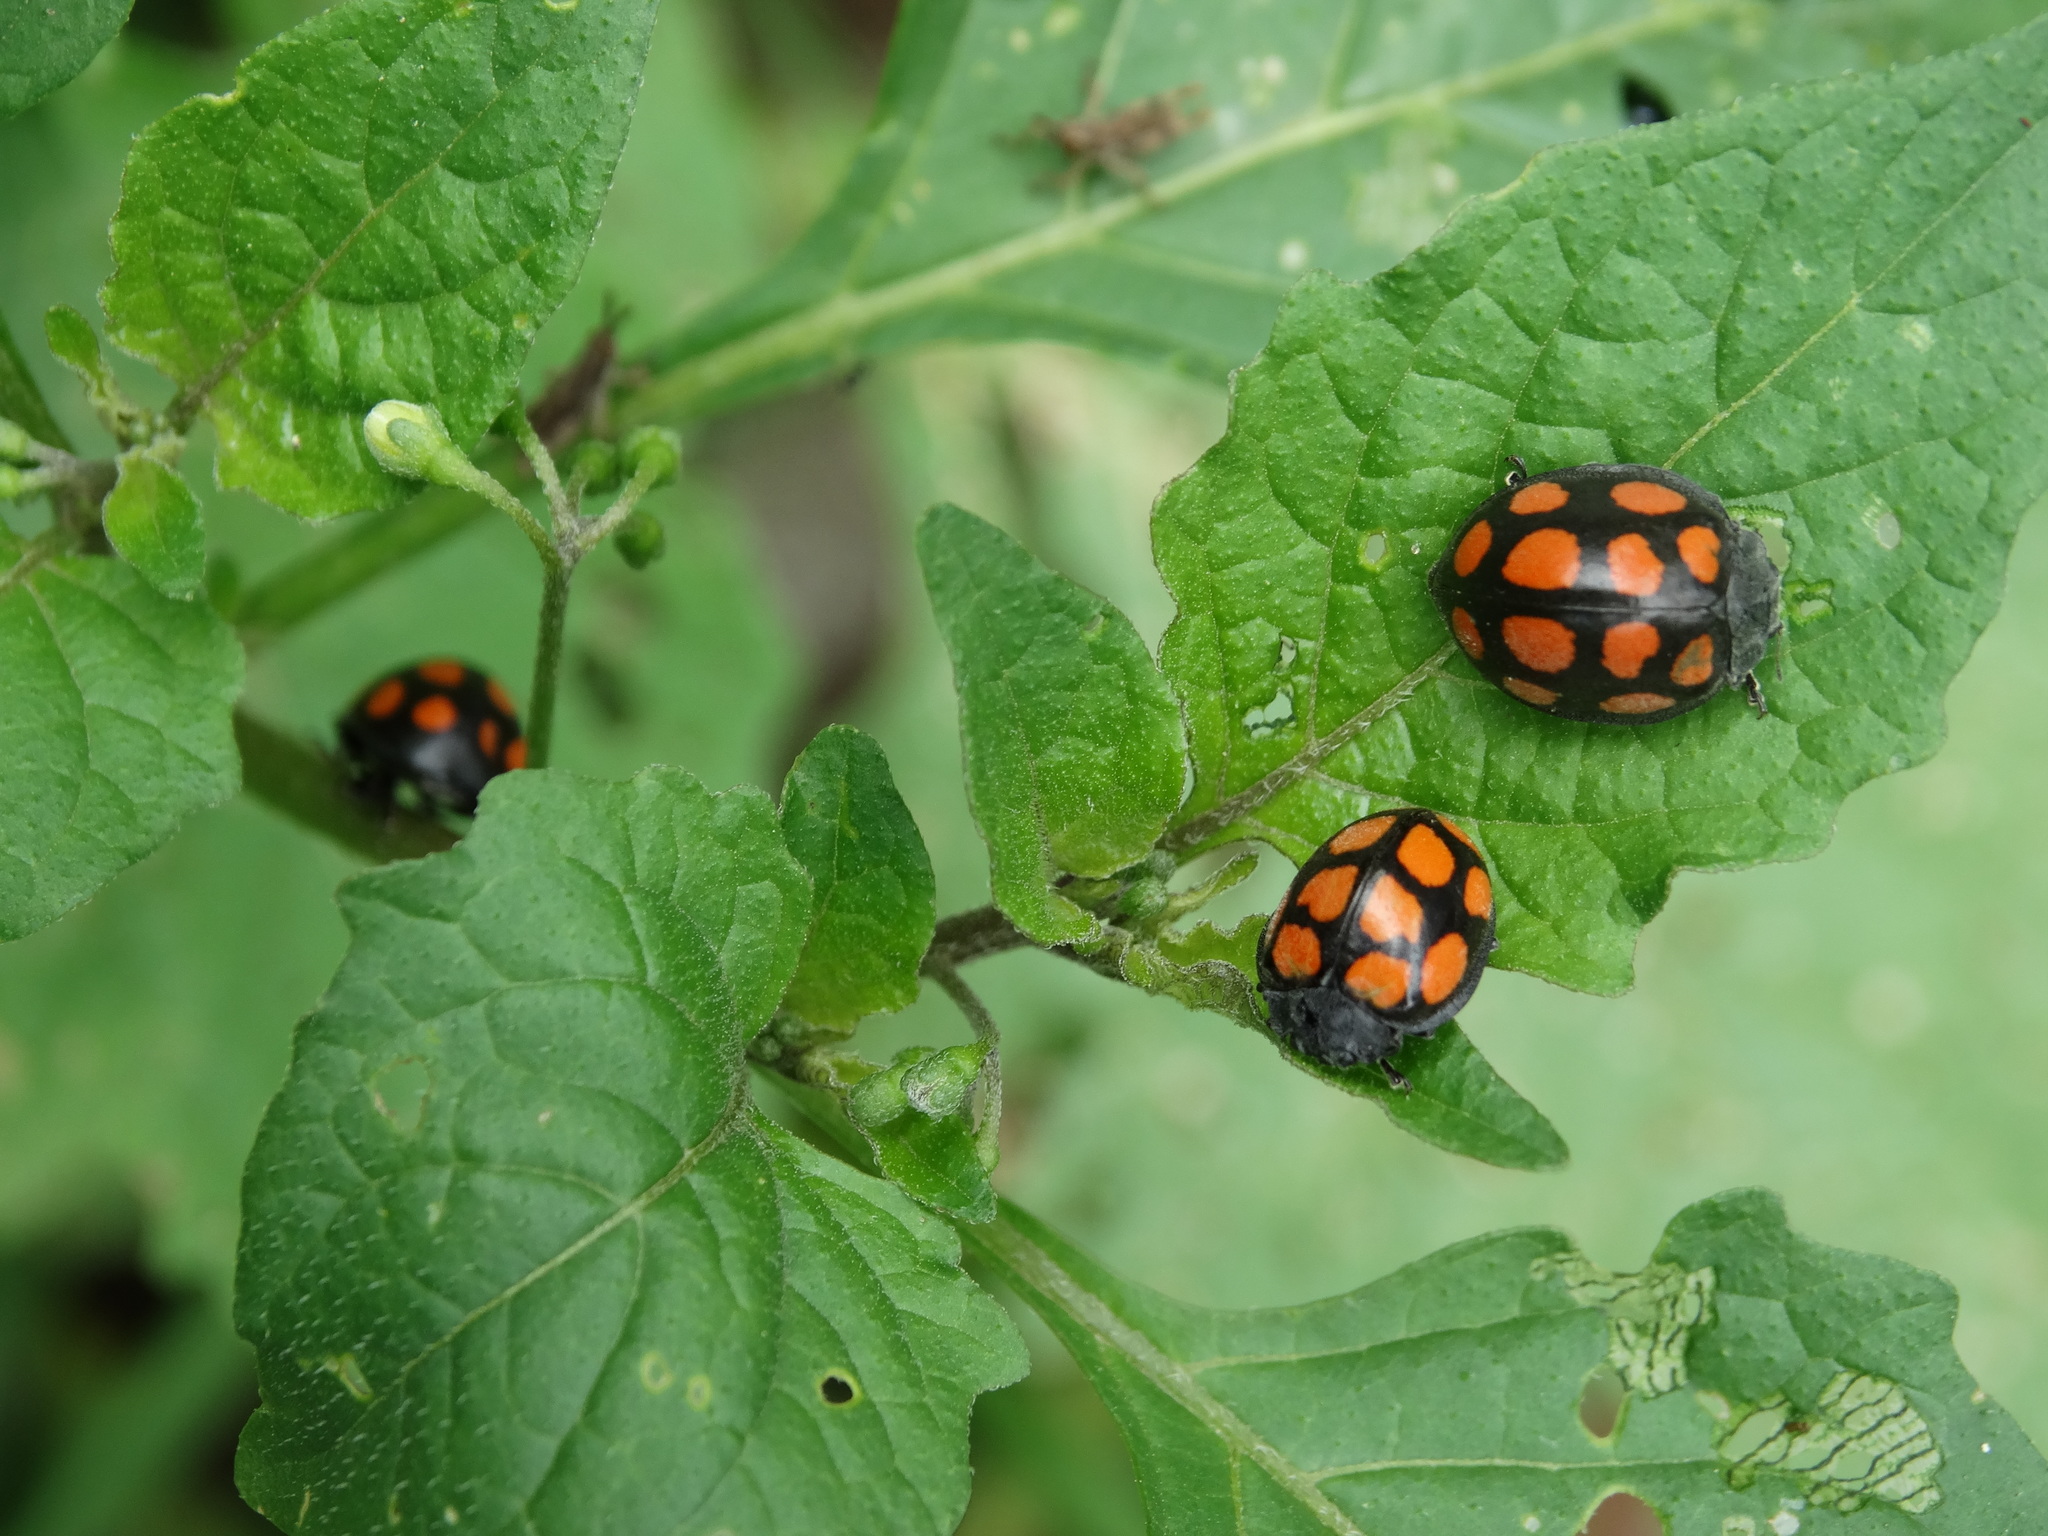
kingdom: Animalia
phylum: Arthropoda
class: Insecta
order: Coleoptera
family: Coccinellidae
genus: Epilachna
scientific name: Epilachna
